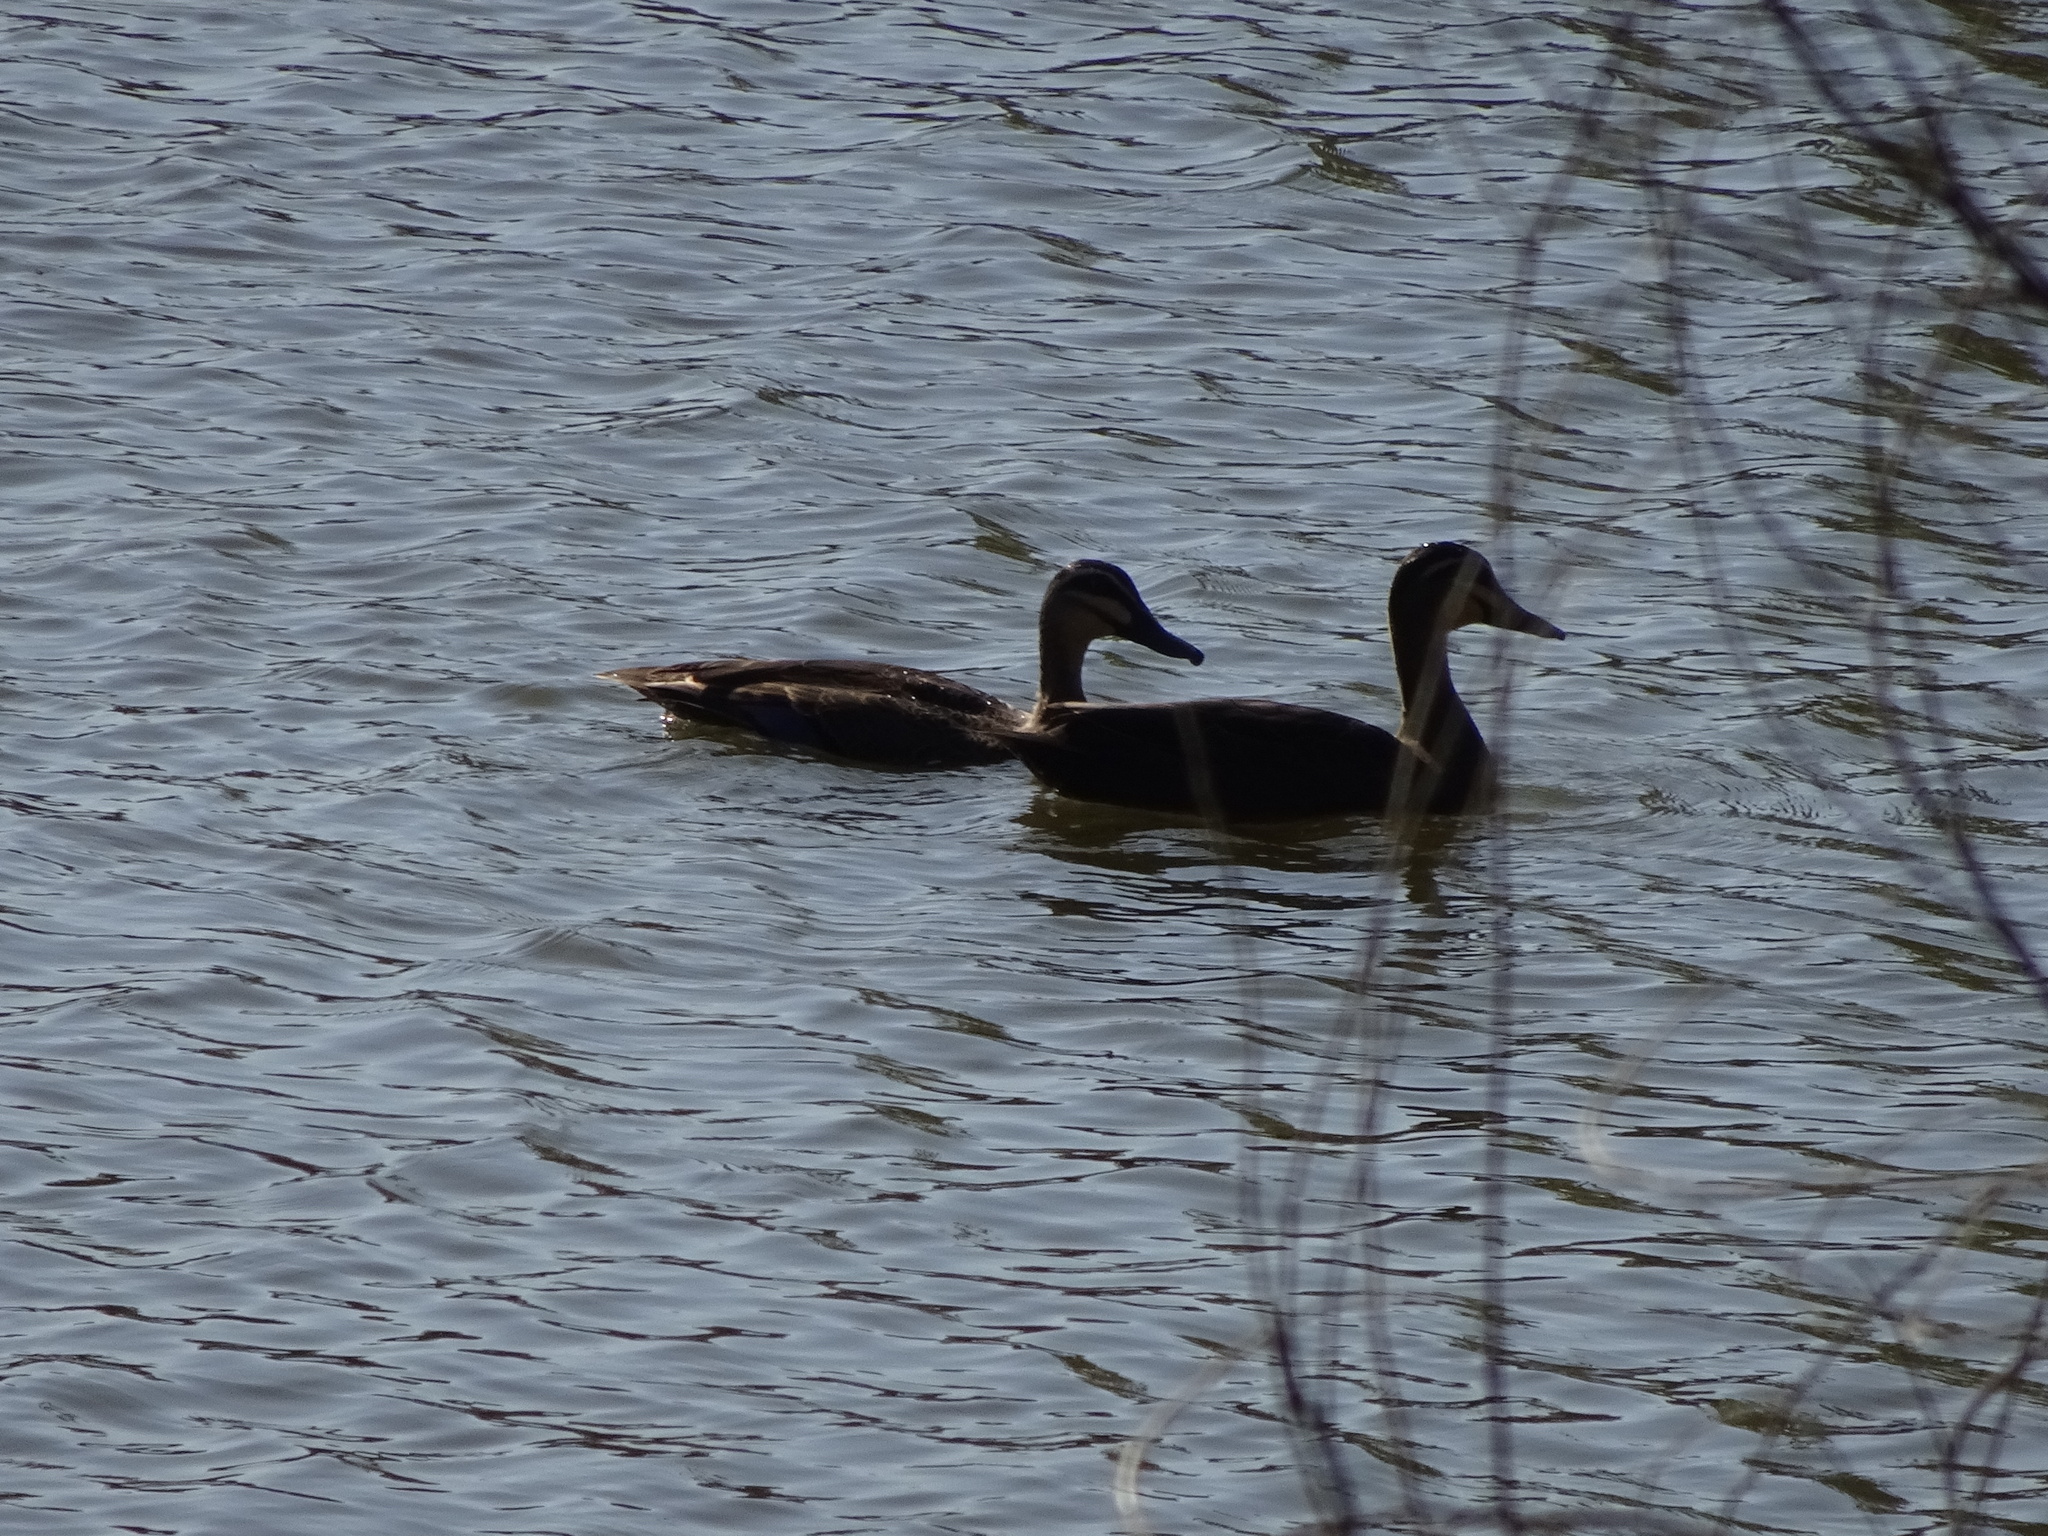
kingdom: Animalia
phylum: Chordata
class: Aves
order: Anseriformes
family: Anatidae
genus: Anas
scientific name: Anas superciliosa
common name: Pacific black duck
